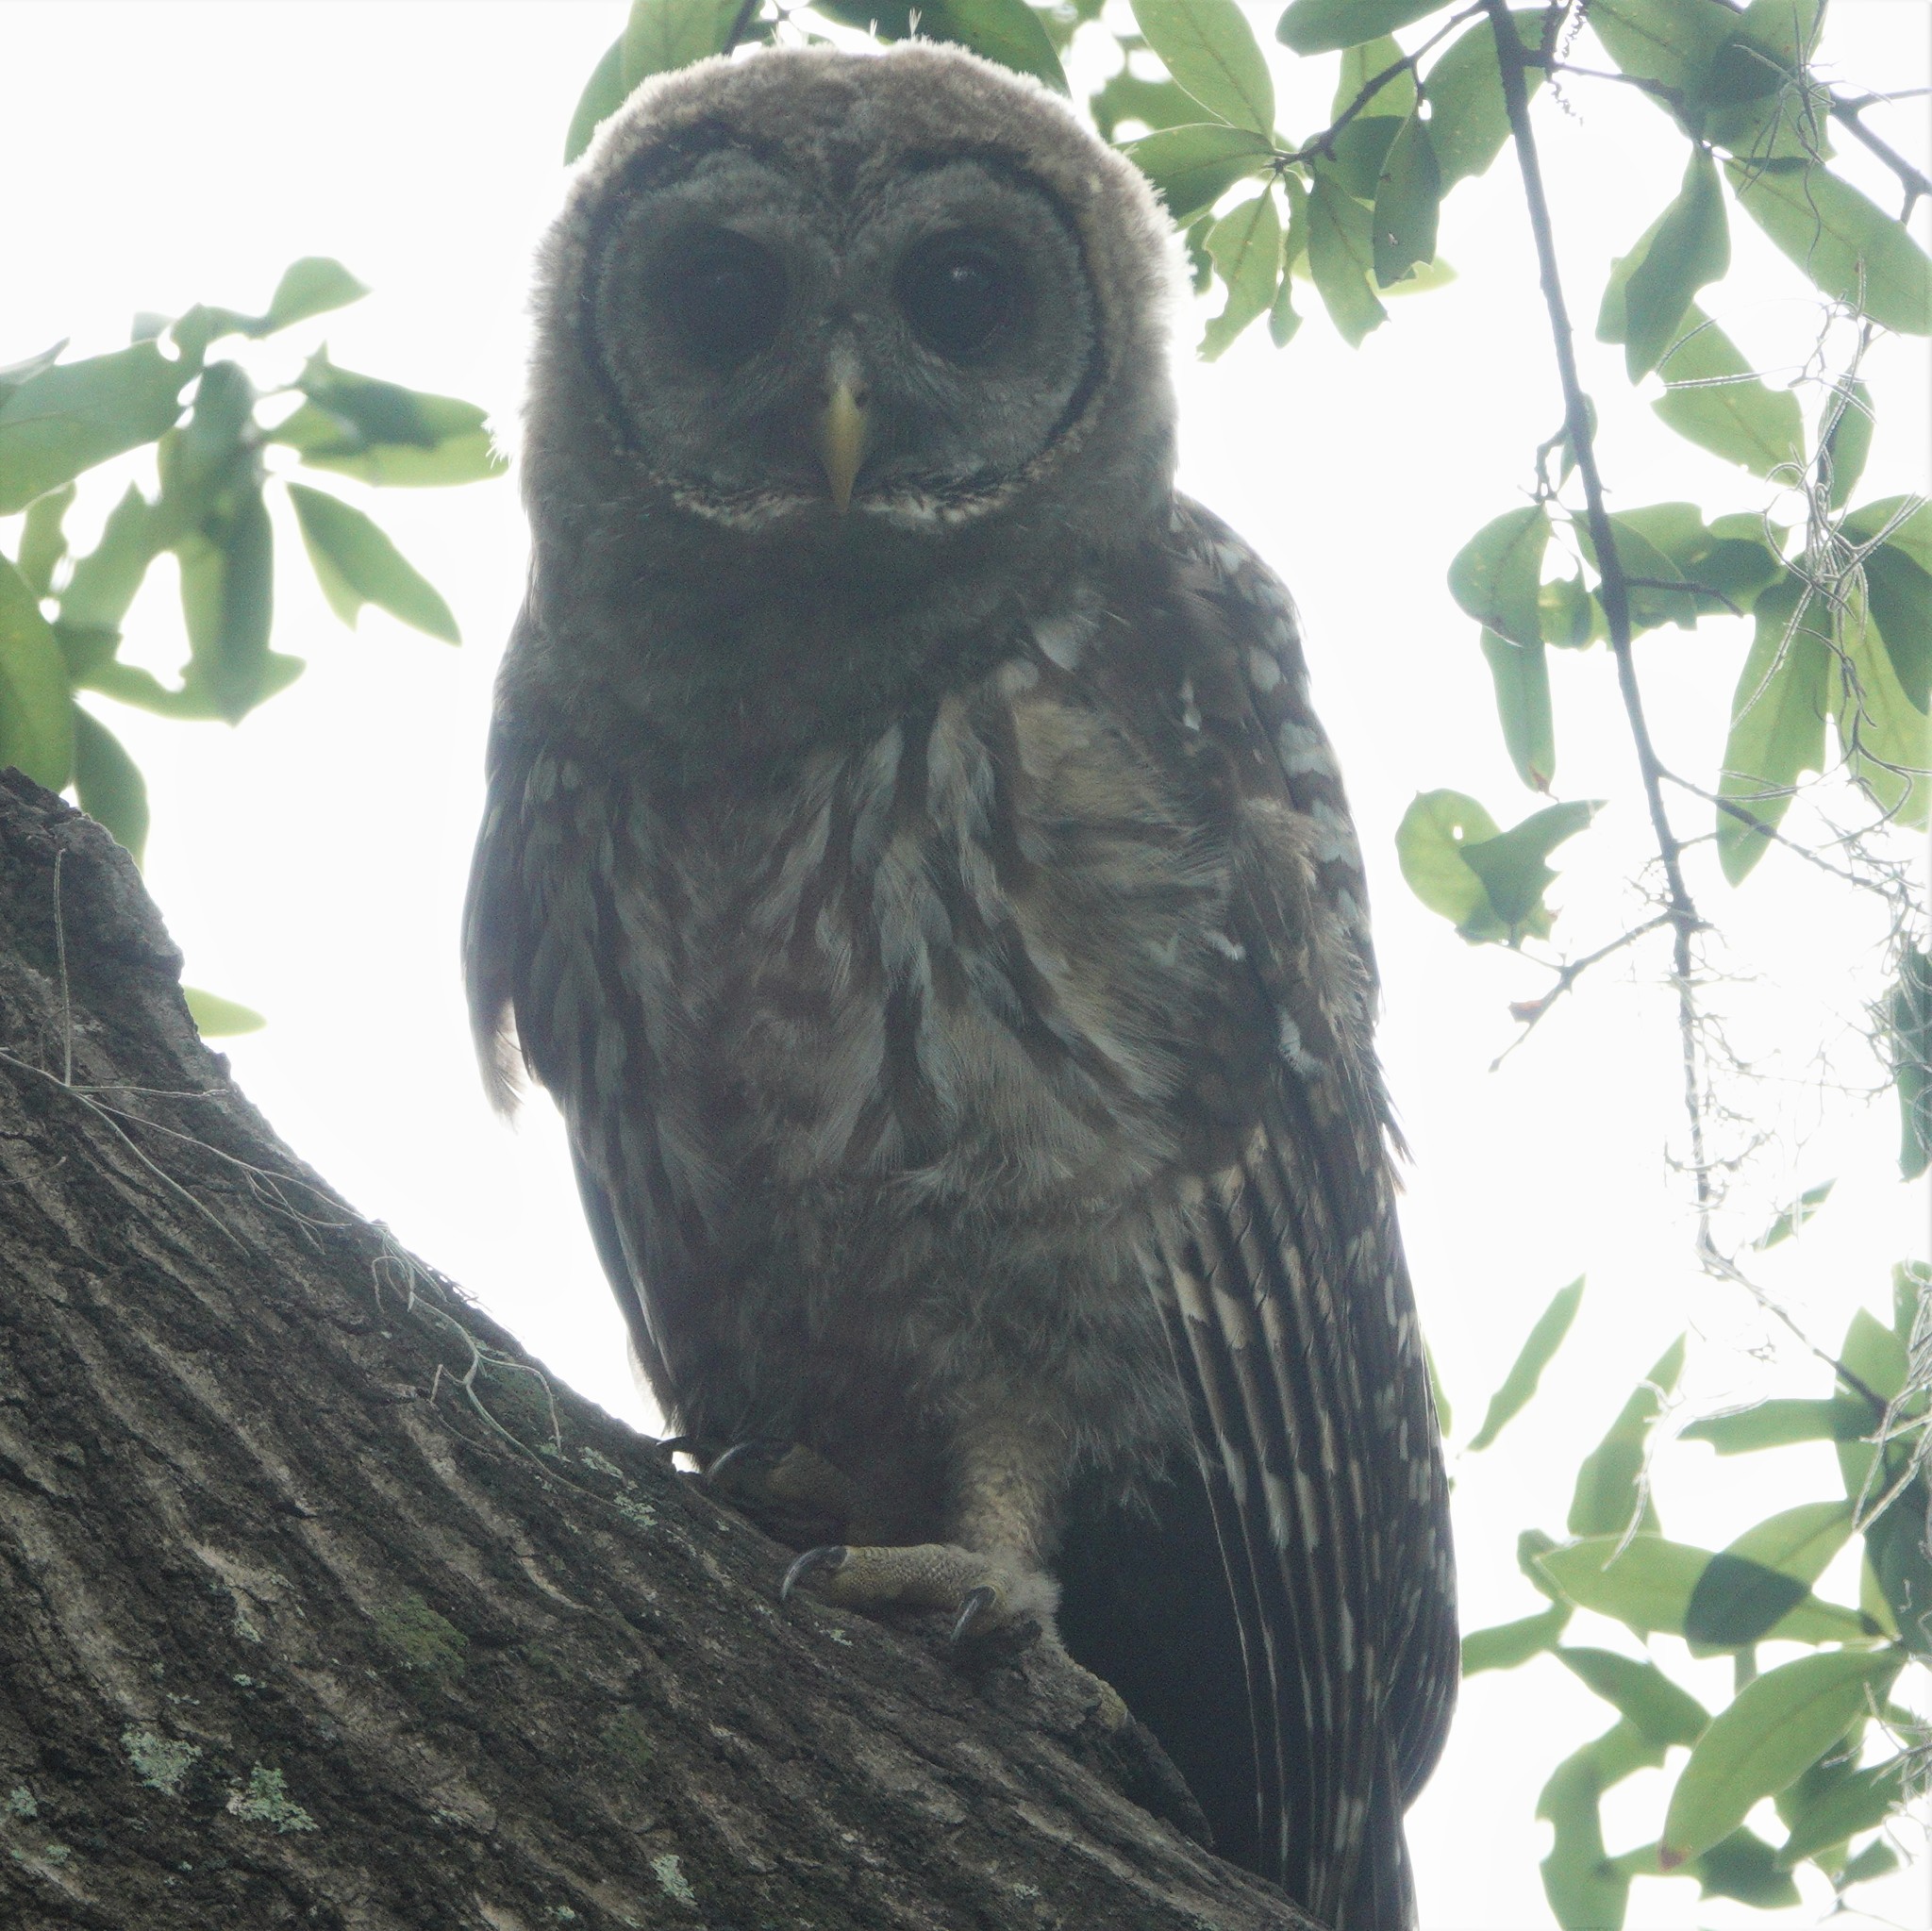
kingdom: Animalia
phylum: Chordata
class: Aves
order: Strigiformes
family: Strigidae
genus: Strix
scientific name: Strix varia
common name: Barred owl
